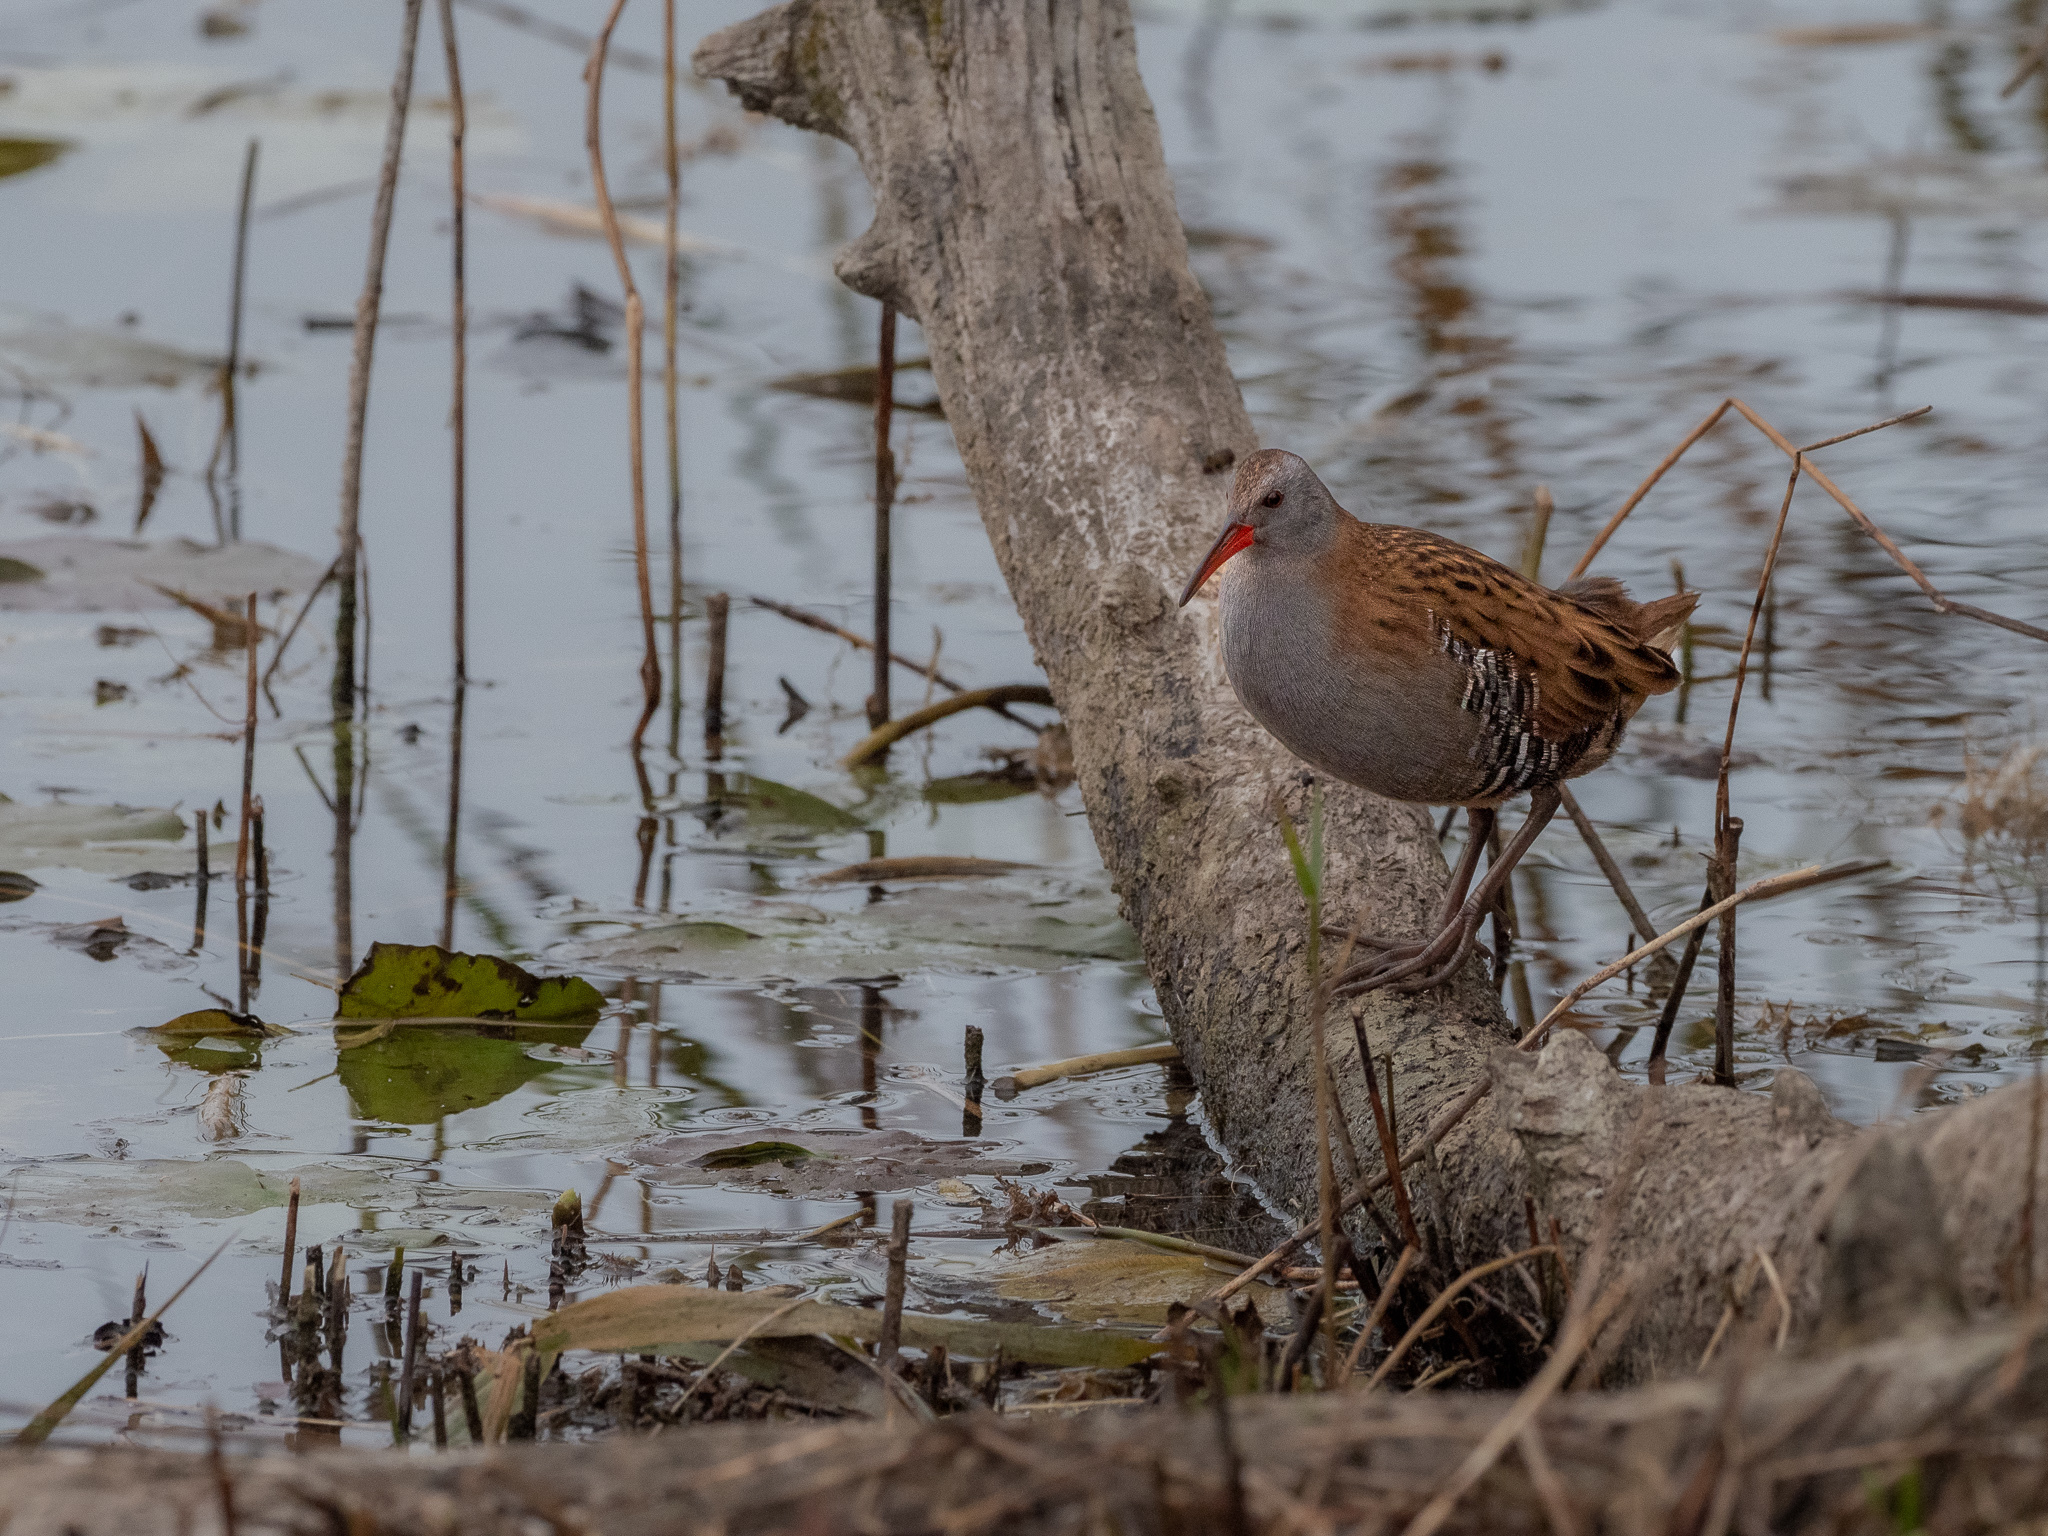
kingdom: Animalia
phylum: Chordata
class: Aves
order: Gruiformes
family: Rallidae
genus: Rallus
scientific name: Rallus aquaticus
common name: Water rail
